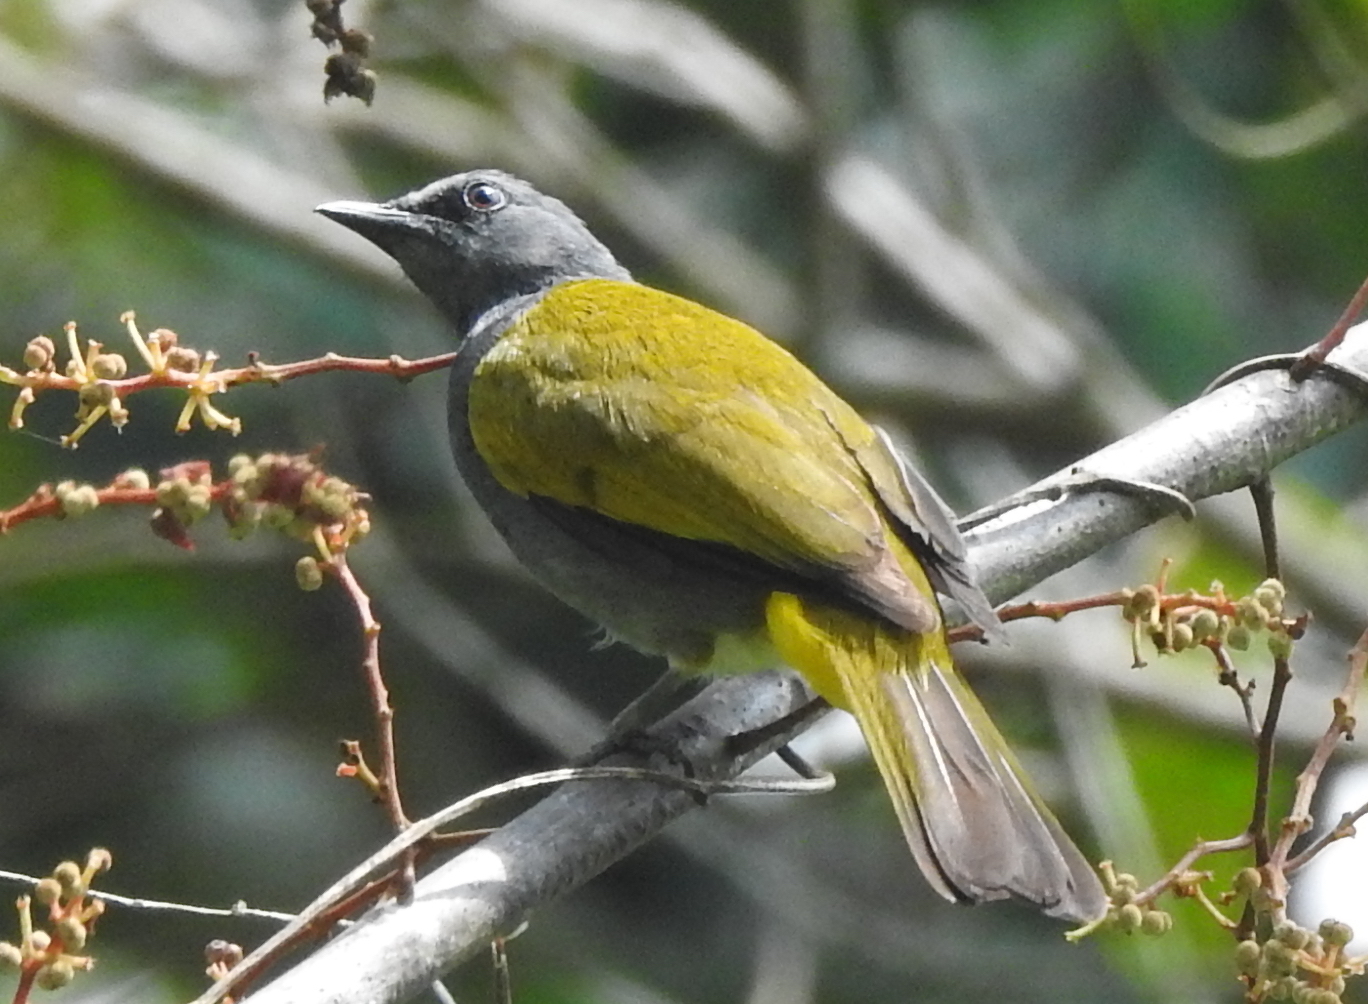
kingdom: Animalia
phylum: Chordata
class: Aves
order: Passeriformes
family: Pycnonotidae
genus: Rubigula
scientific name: Rubigula cyaniventris
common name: Gray-bellied bulbul
